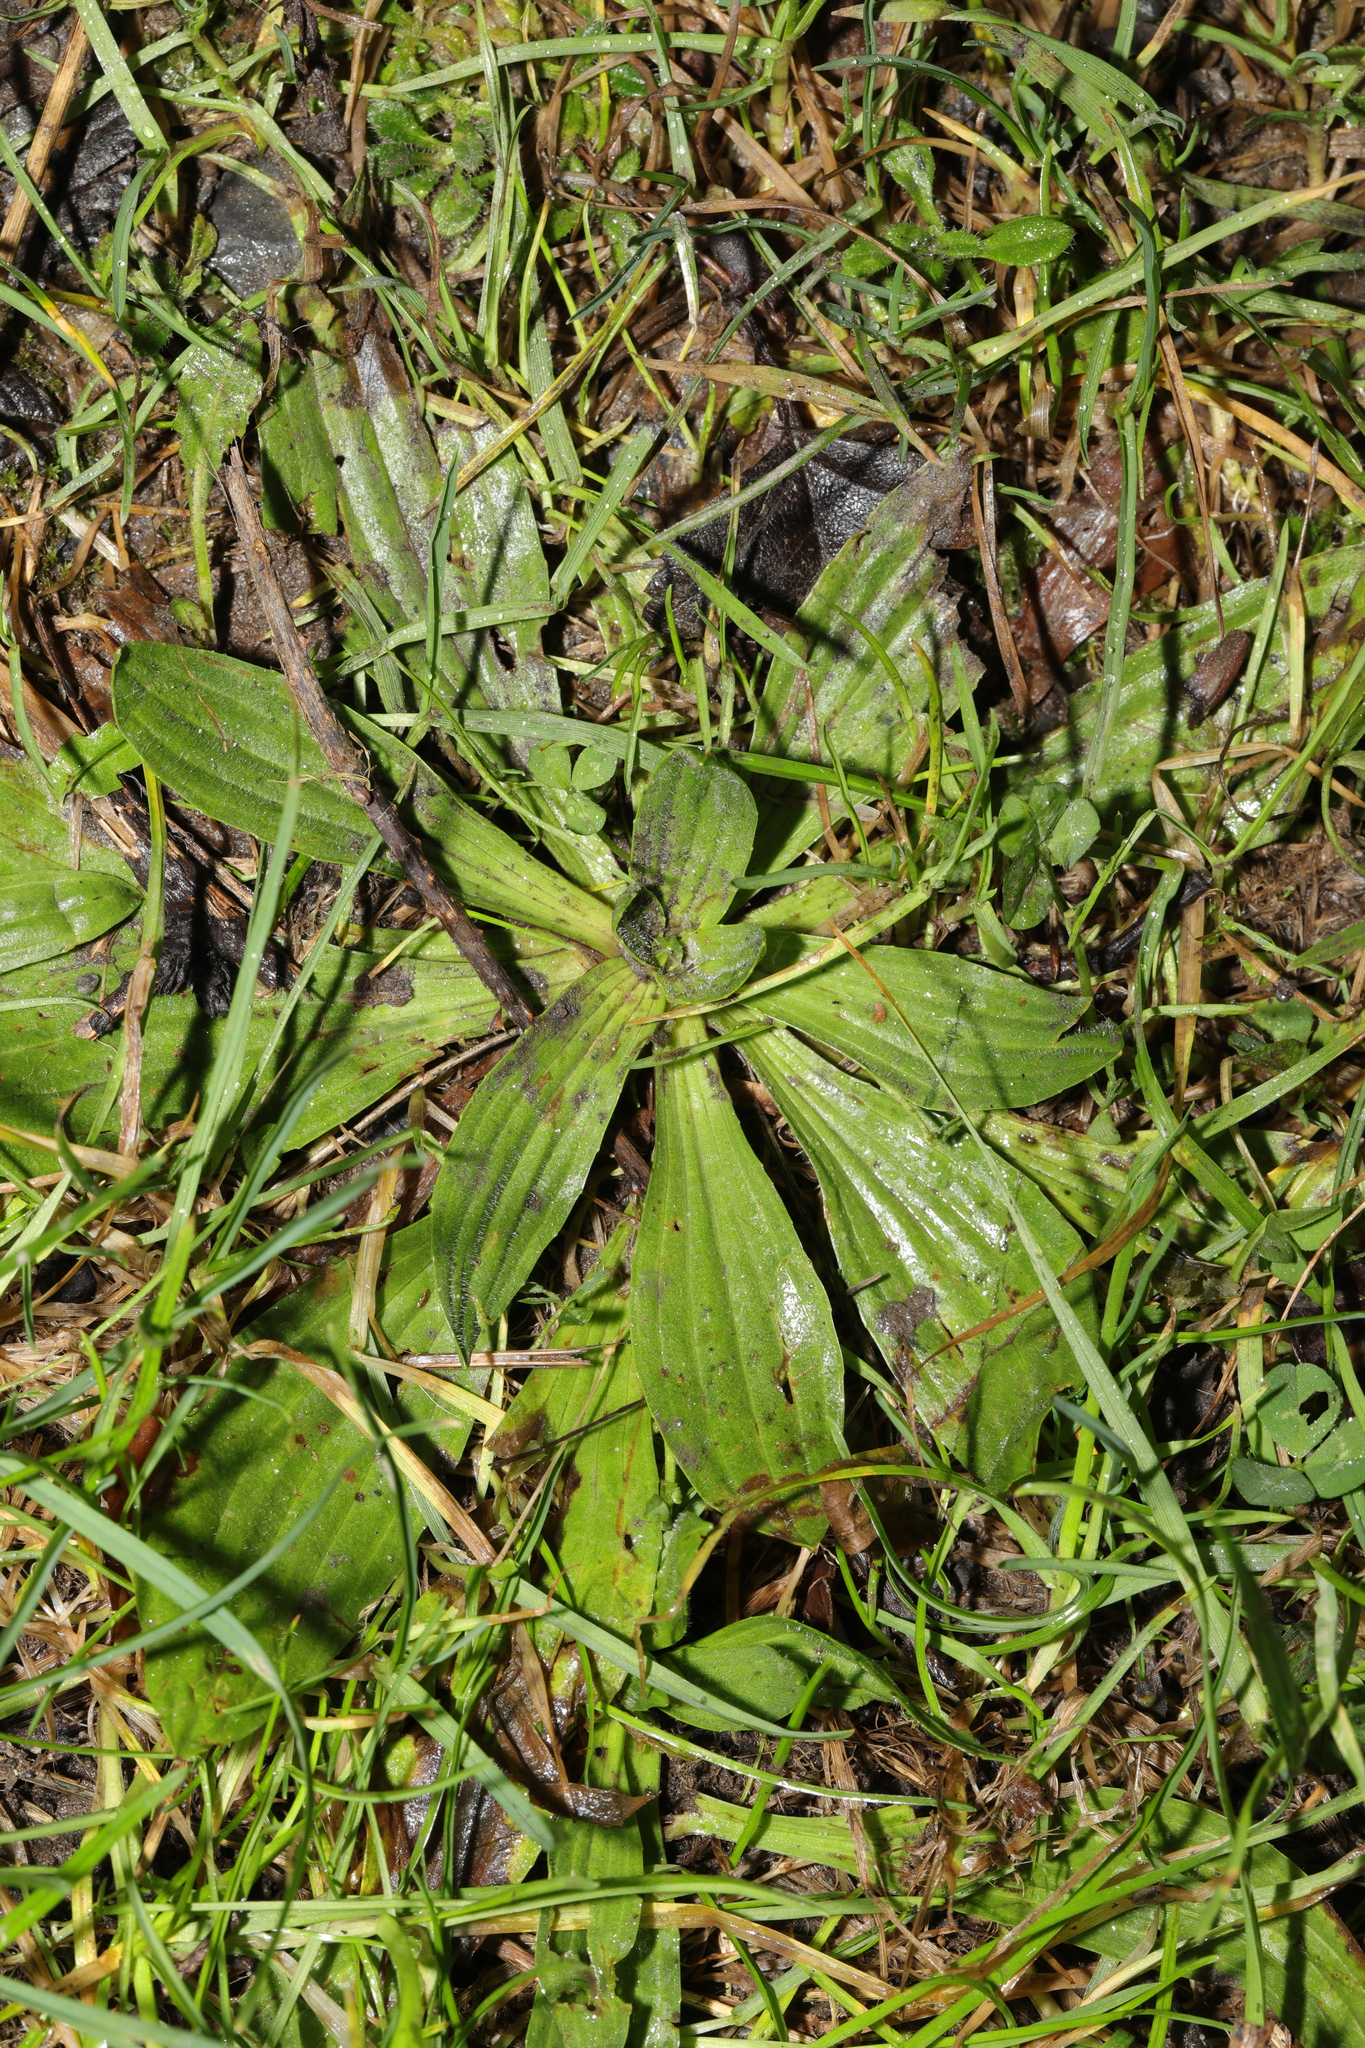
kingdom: Plantae
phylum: Tracheophyta
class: Magnoliopsida
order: Lamiales
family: Plantaginaceae
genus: Plantago
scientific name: Plantago lanceolata
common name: Ribwort plantain
